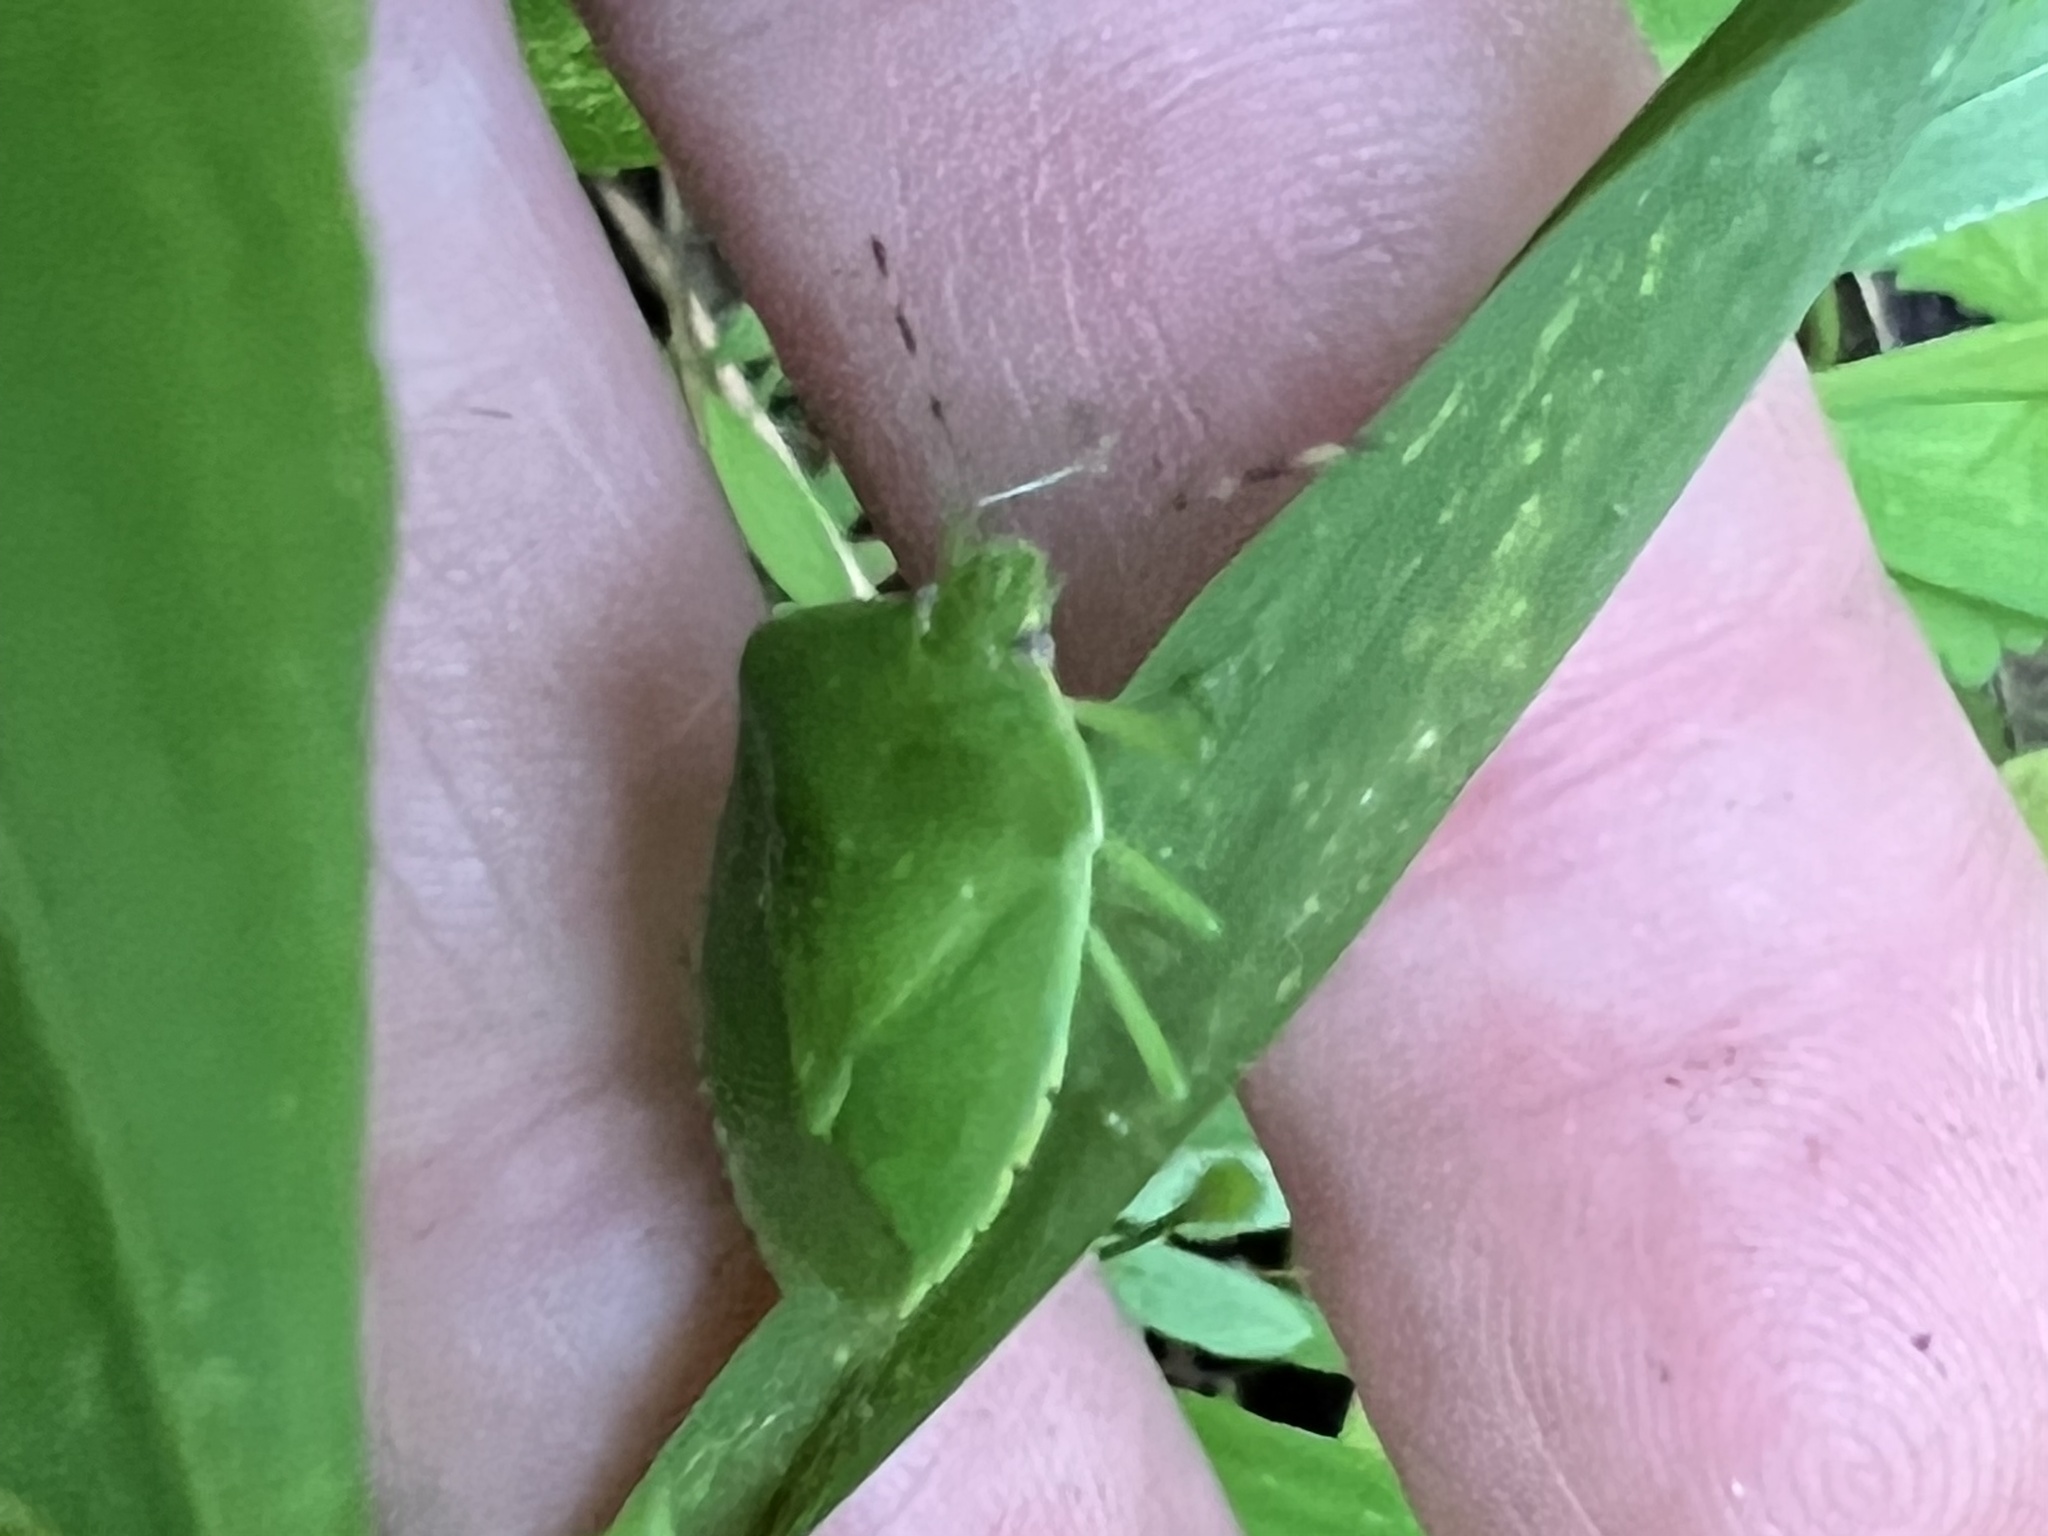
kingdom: Animalia
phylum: Arthropoda
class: Insecta
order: Hemiptera
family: Pentatomidae
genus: Chinavia
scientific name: Chinavia hilaris
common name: Green stink bug
